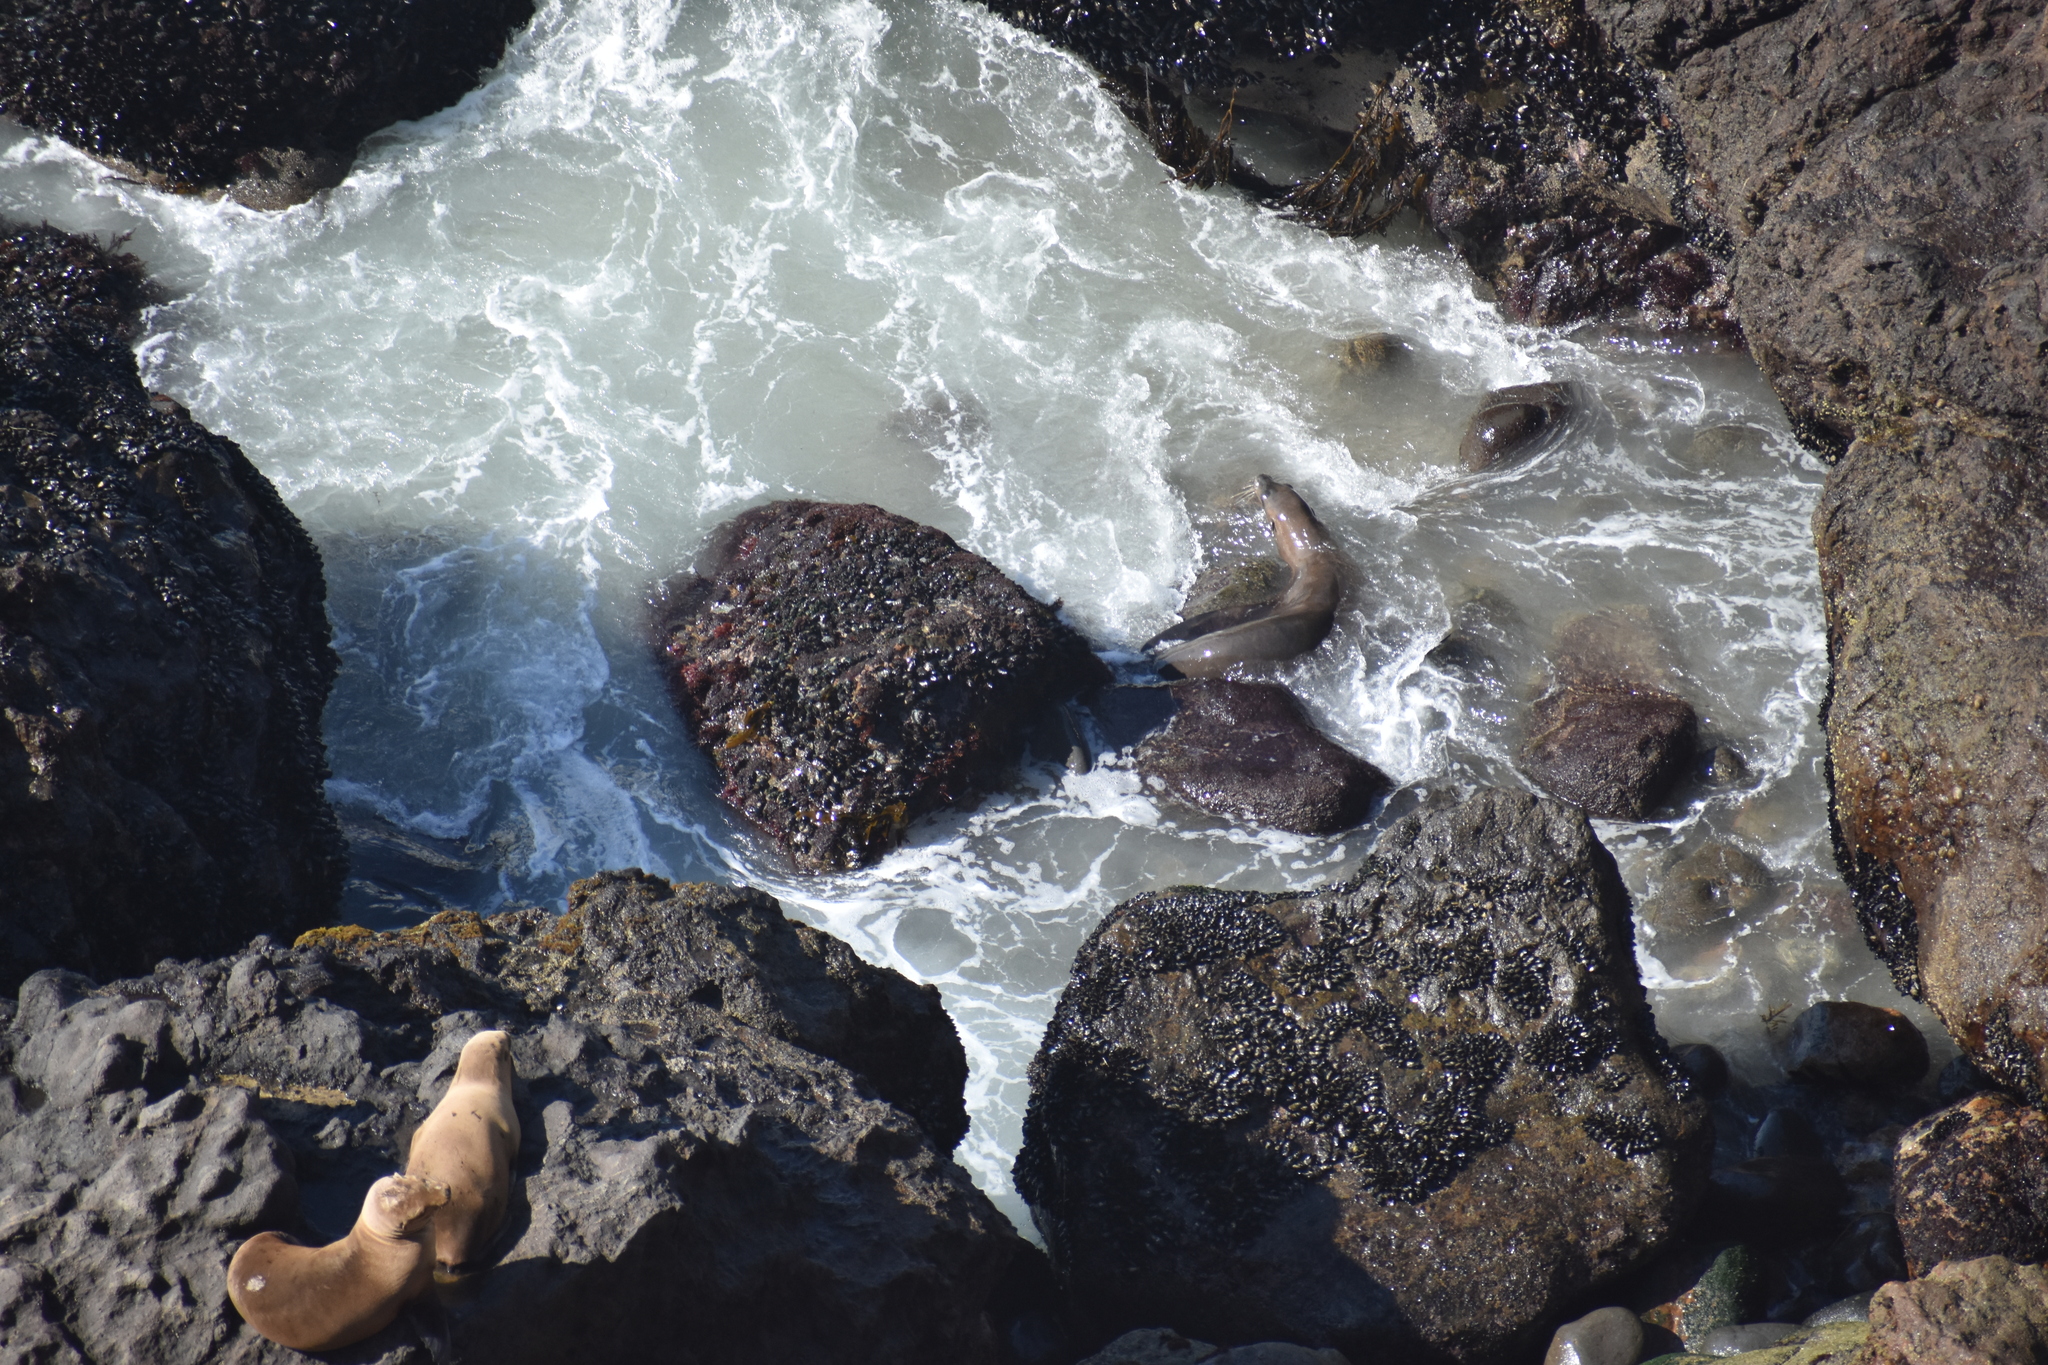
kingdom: Animalia
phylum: Chordata
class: Mammalia
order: Carnivora
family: Otariidae
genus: Zalophus
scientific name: Zalophus californianus
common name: California sea lion
